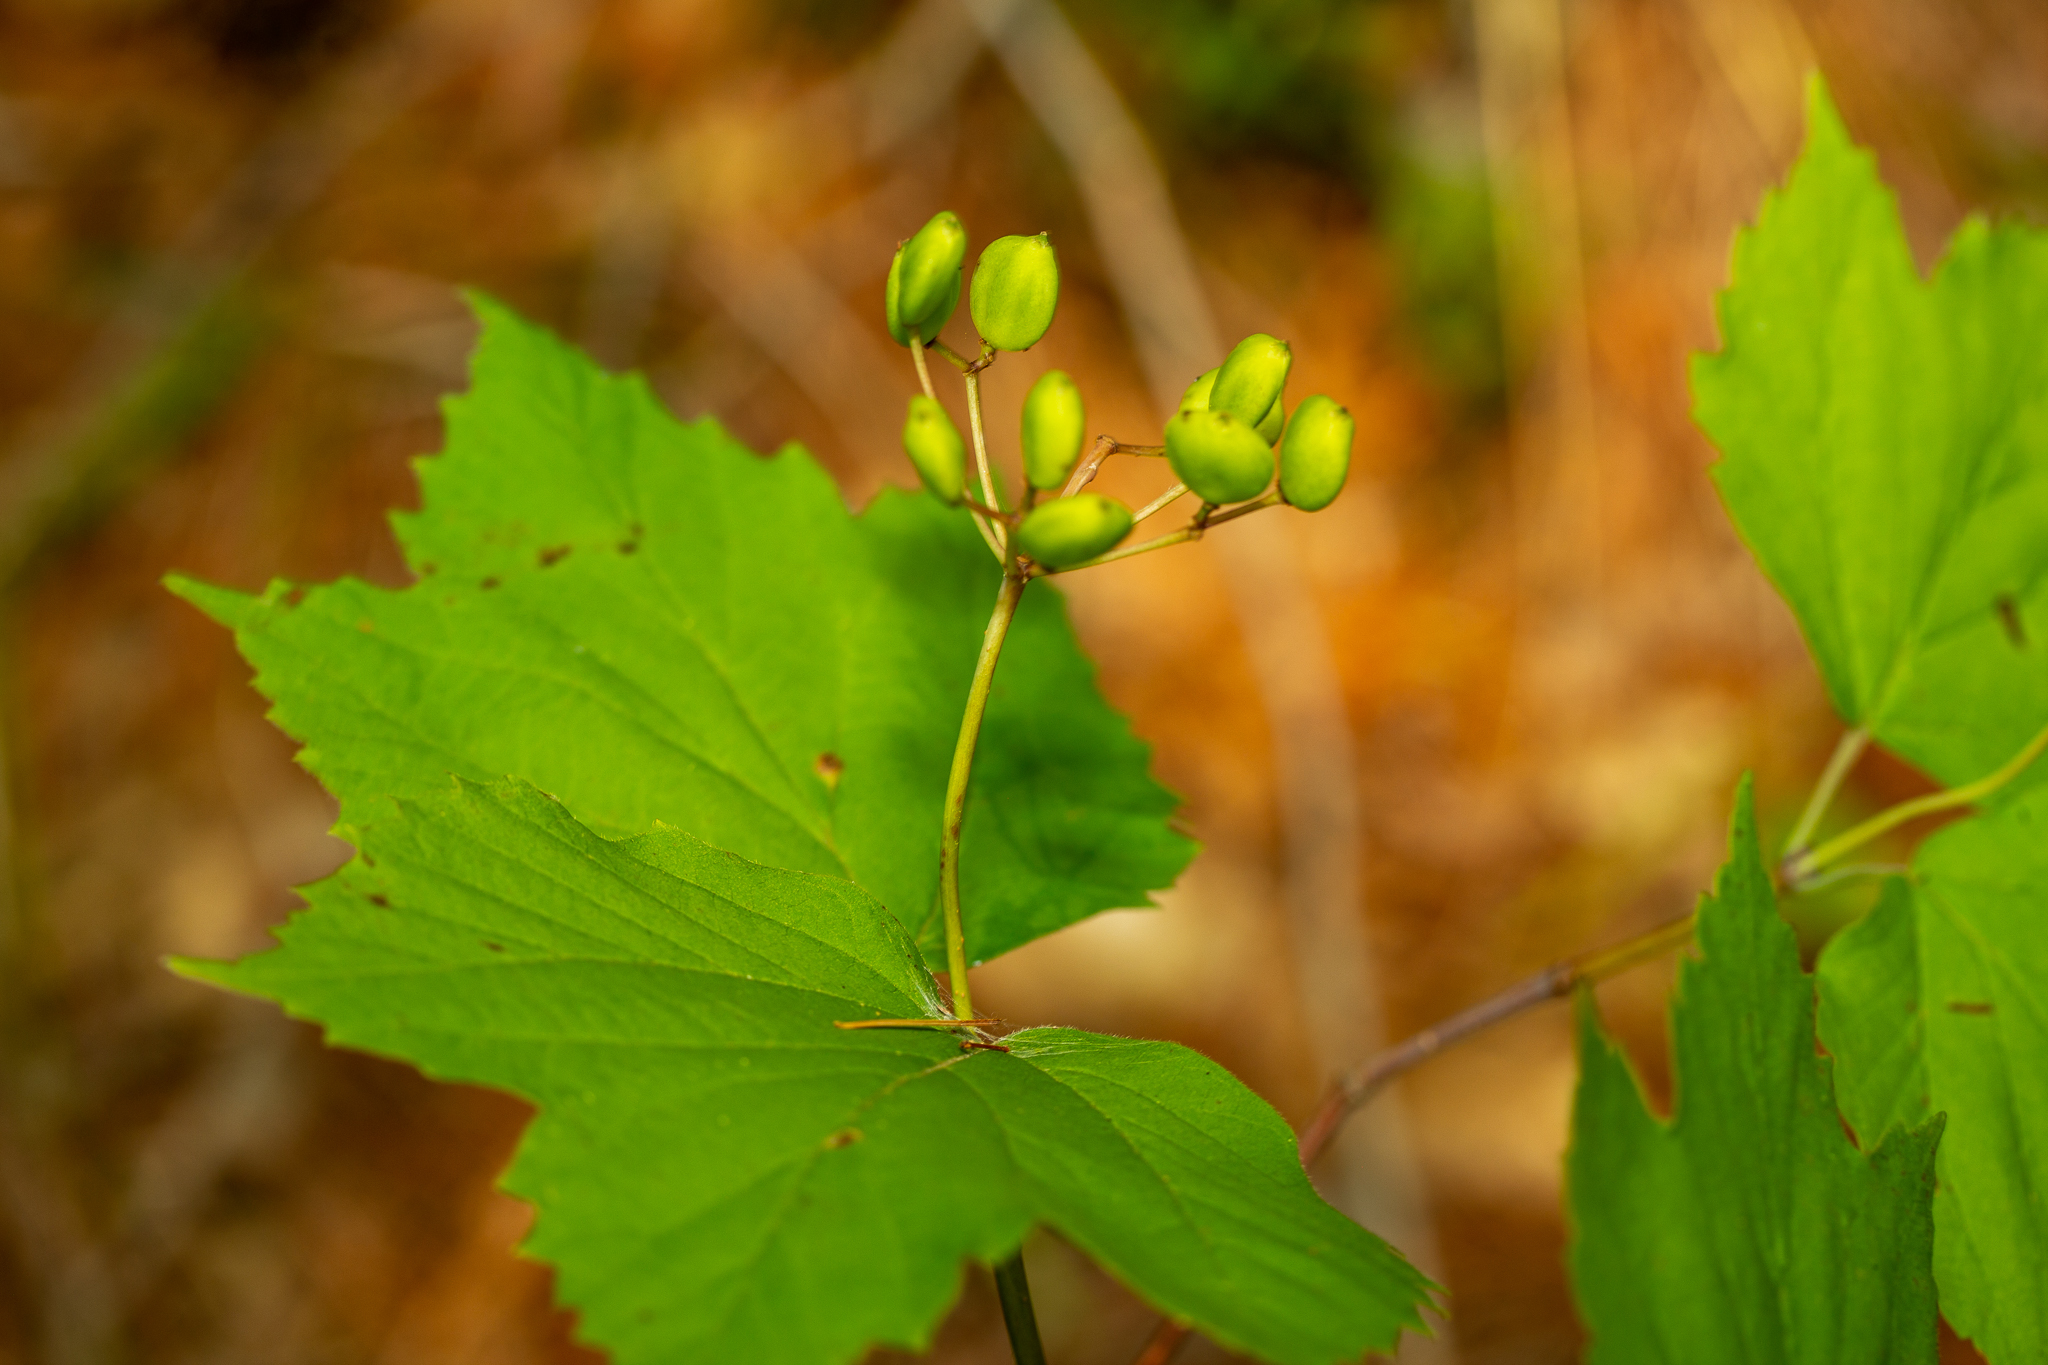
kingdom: Plantae
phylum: Tracheophyta
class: Magnoliopsida
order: Dipsacales
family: Viburnaceae
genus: Viburnum
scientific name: Viburnum acerifolium
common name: Dockmackie
